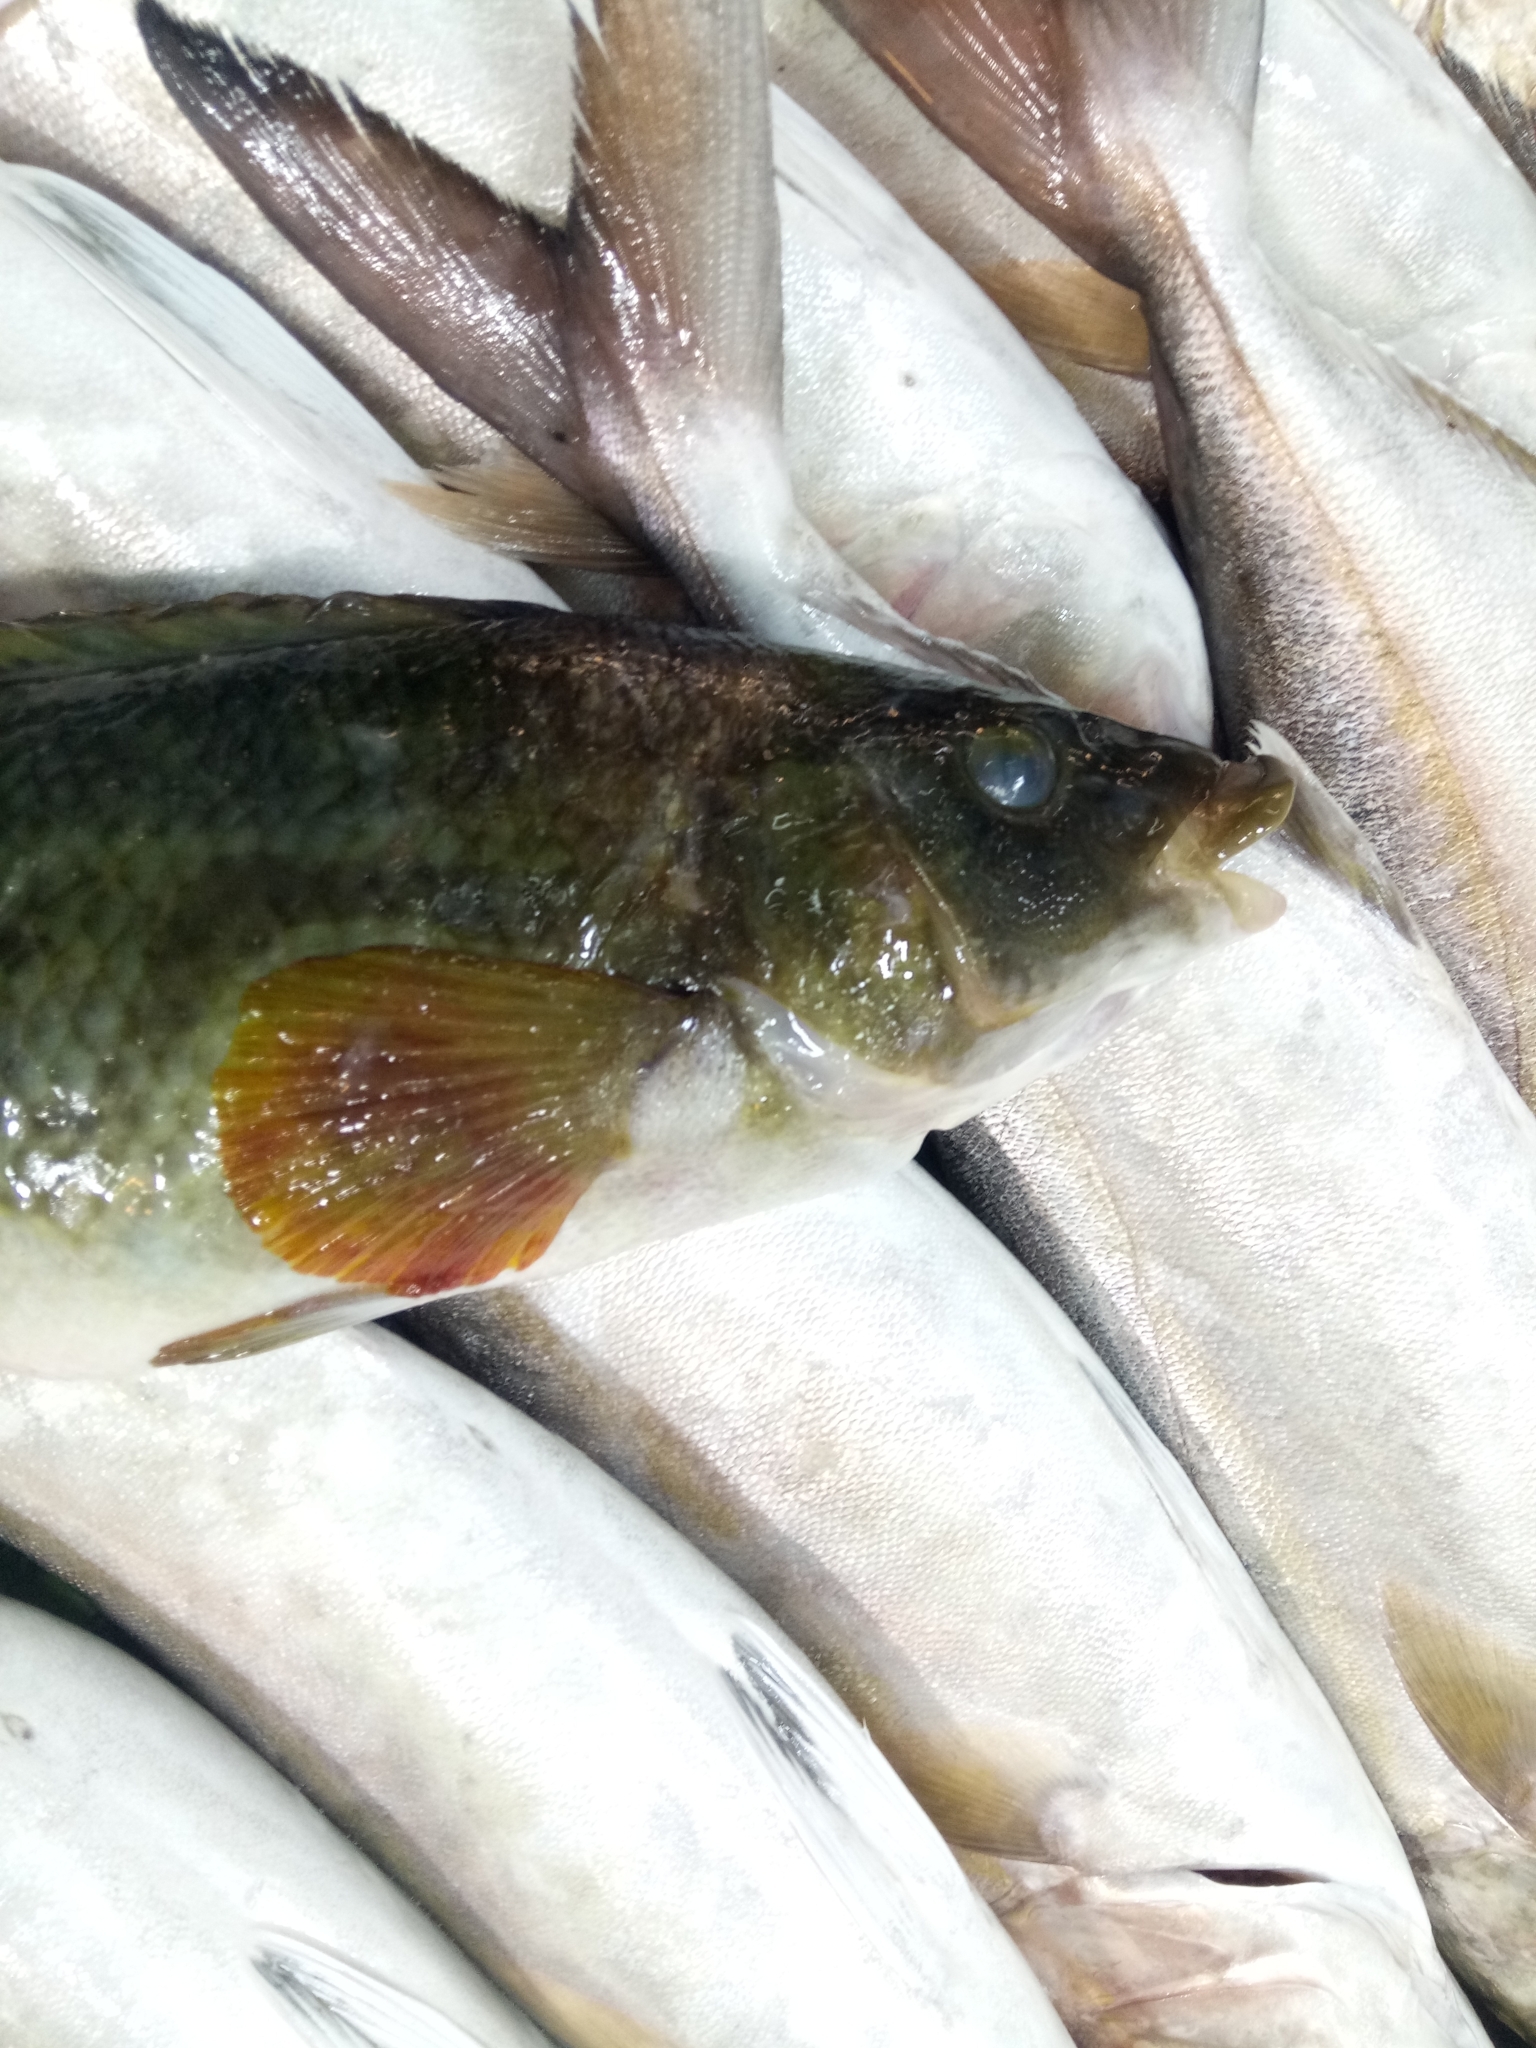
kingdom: Animalia
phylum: Chordata
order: Perciformes
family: Labridae
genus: Labrus
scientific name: Labrus merula
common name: Brown wrasse
